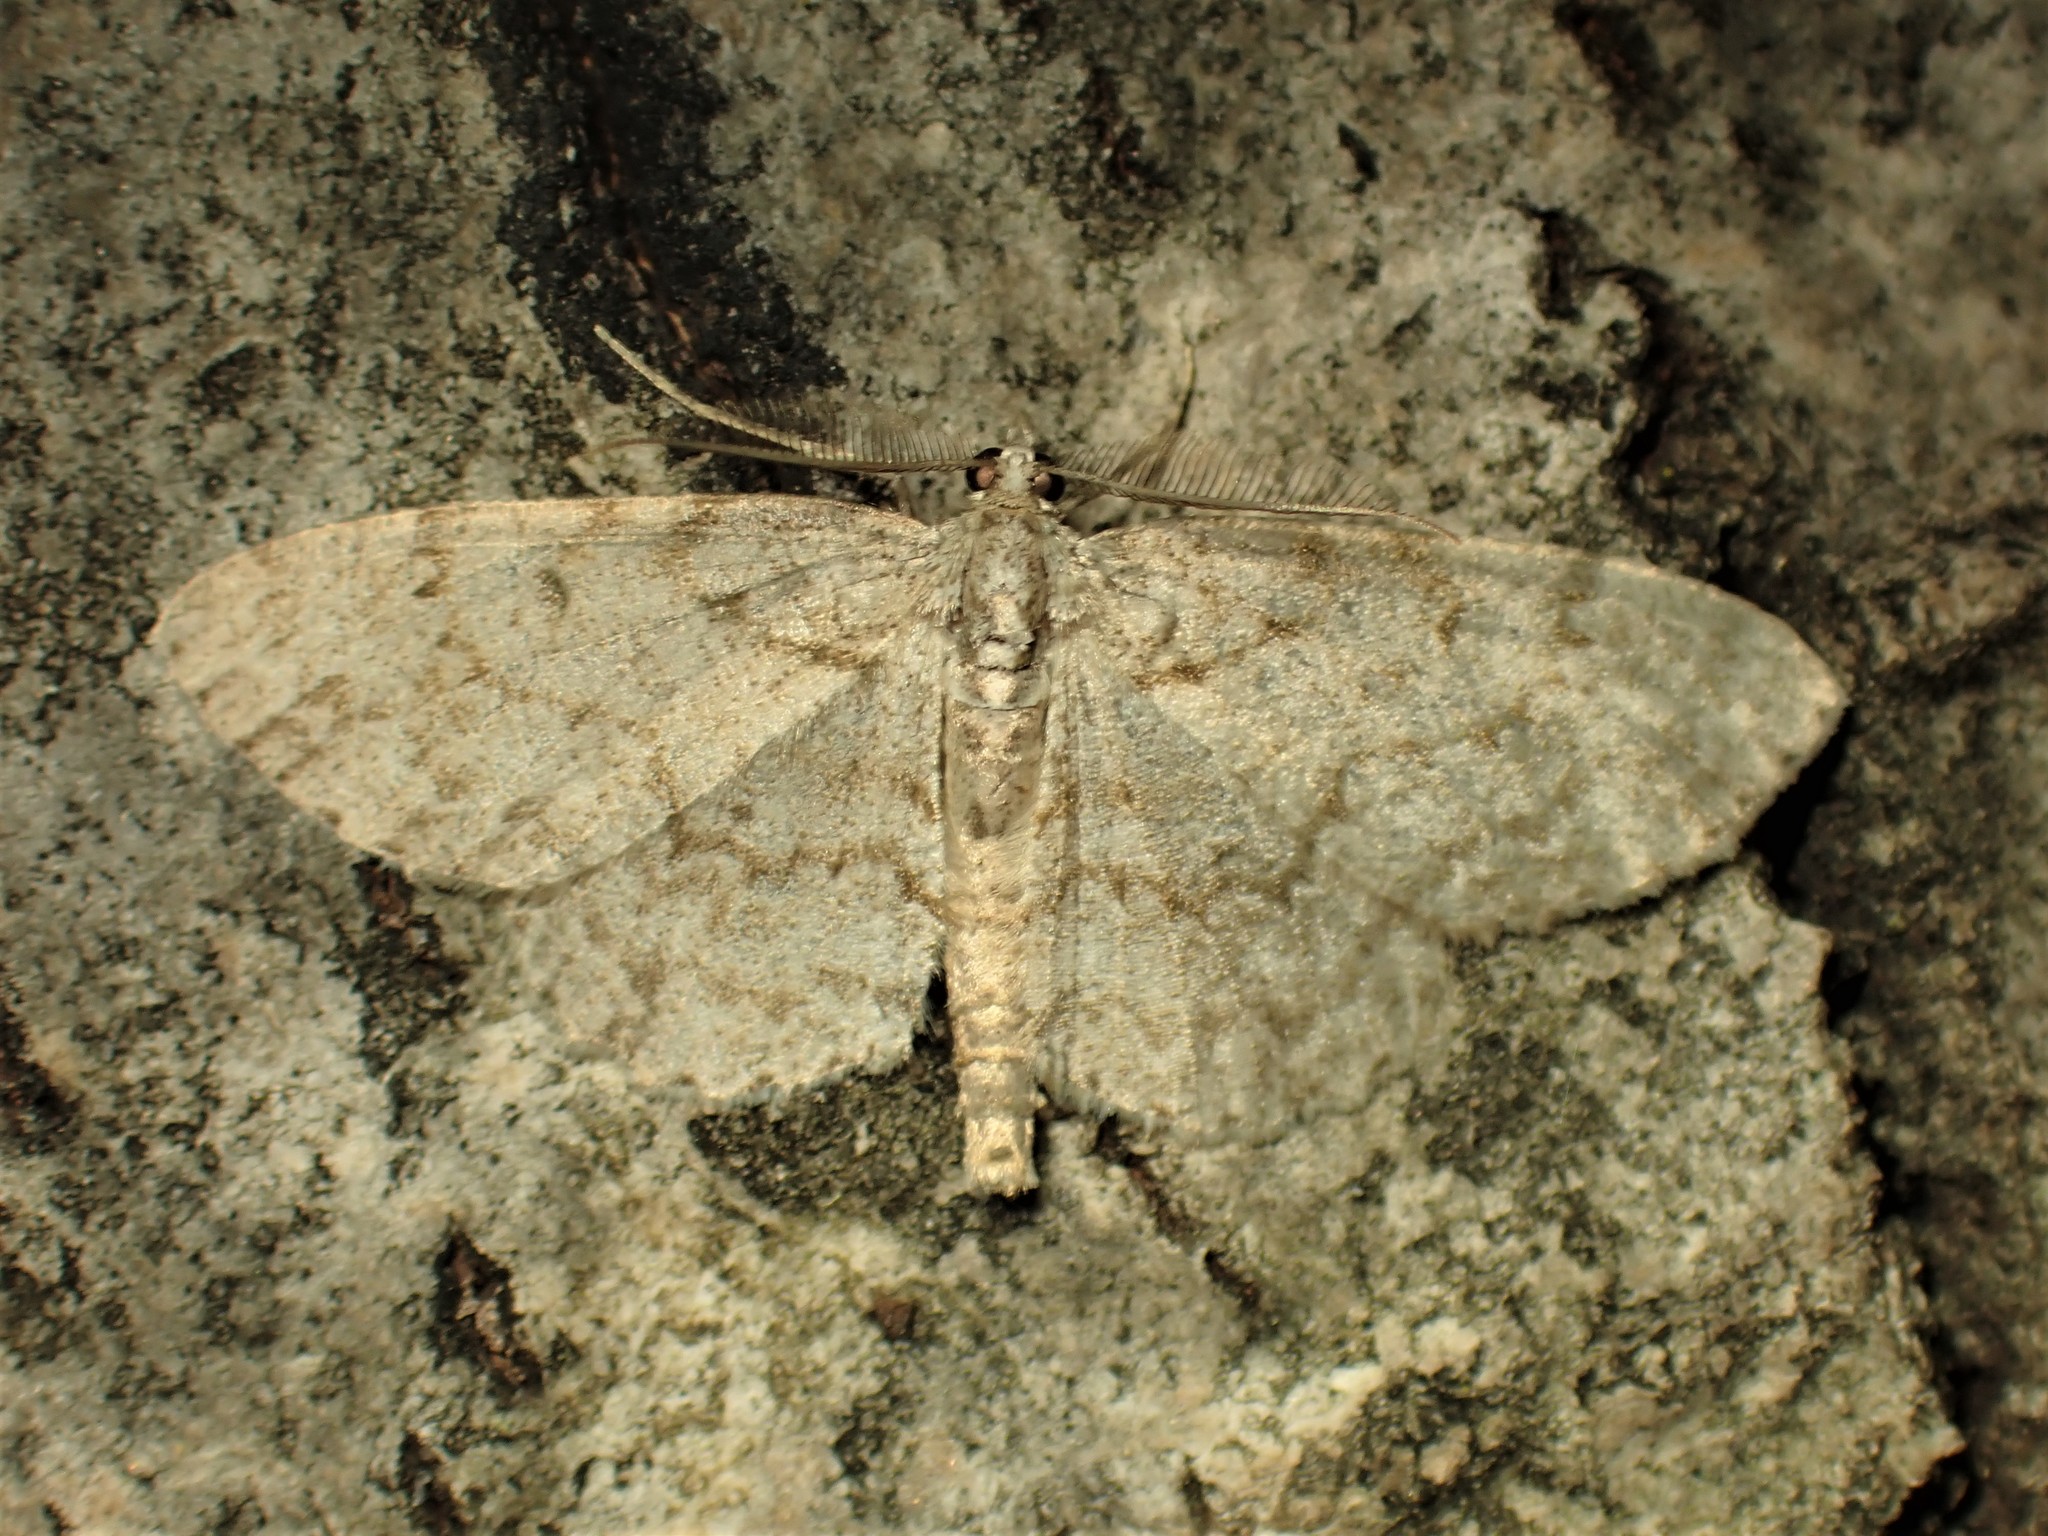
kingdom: Animalia
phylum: Arthropoda
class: Insecta
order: Lepidoptera
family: Geometridae
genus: Protoboarmia
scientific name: Protoboarmia porcelaria
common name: Porcelain gray
